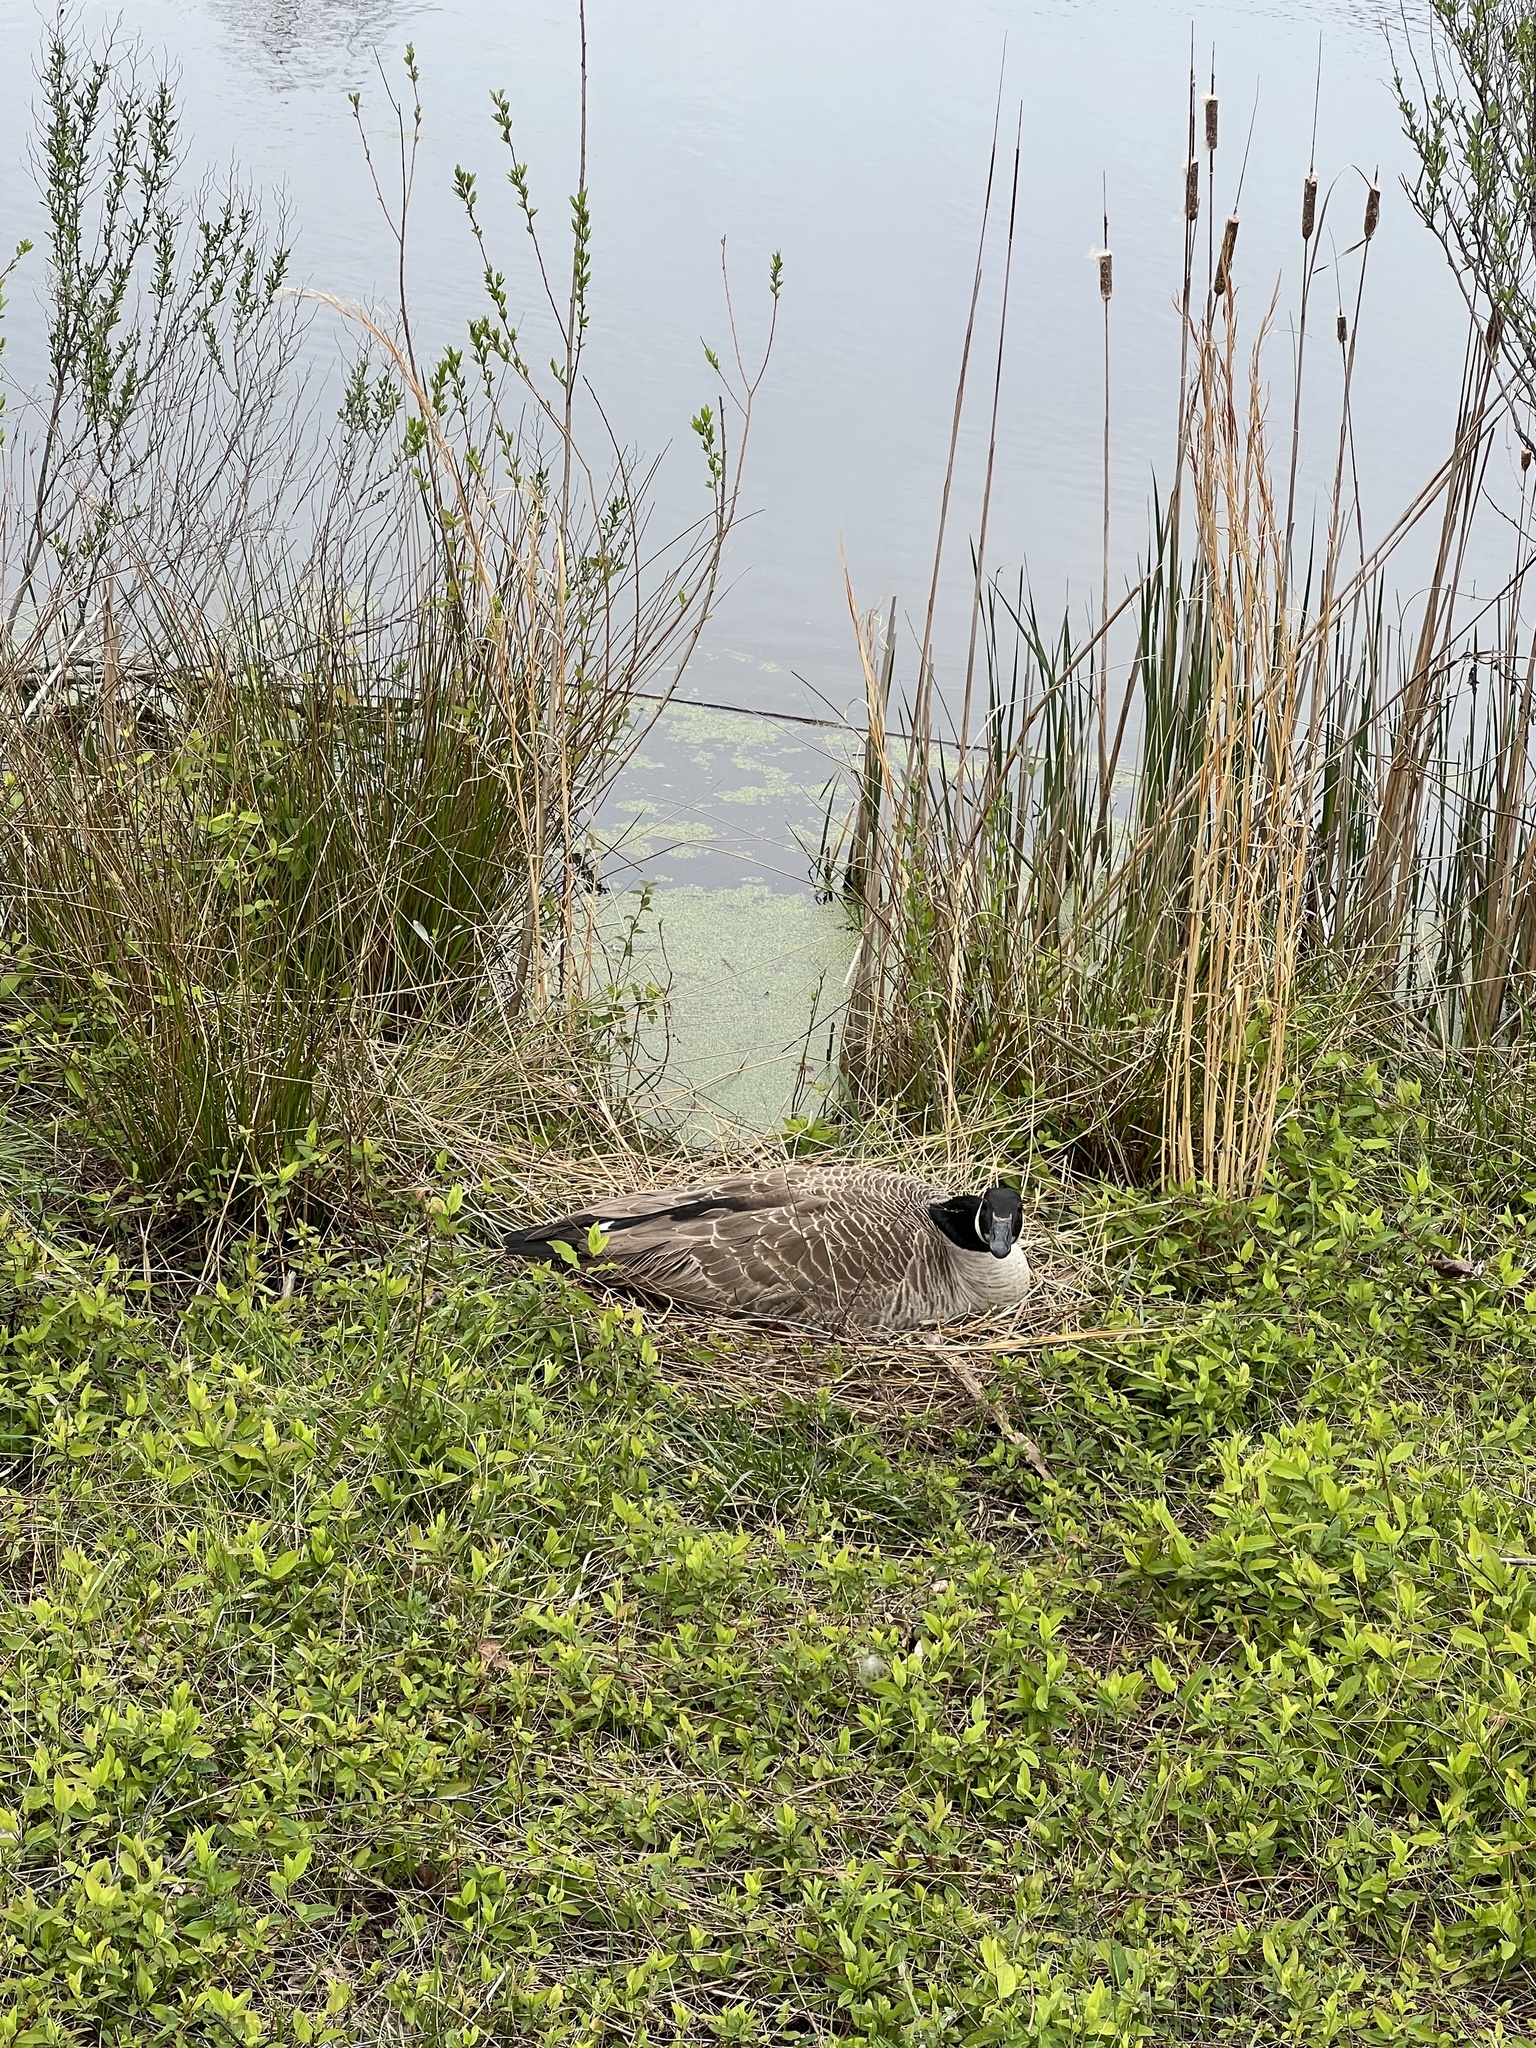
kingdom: Animalia
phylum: Chordata
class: Aves
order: Anseriformes
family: Anatidae
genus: Branta
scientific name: Branta canadensis
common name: Canada goose
